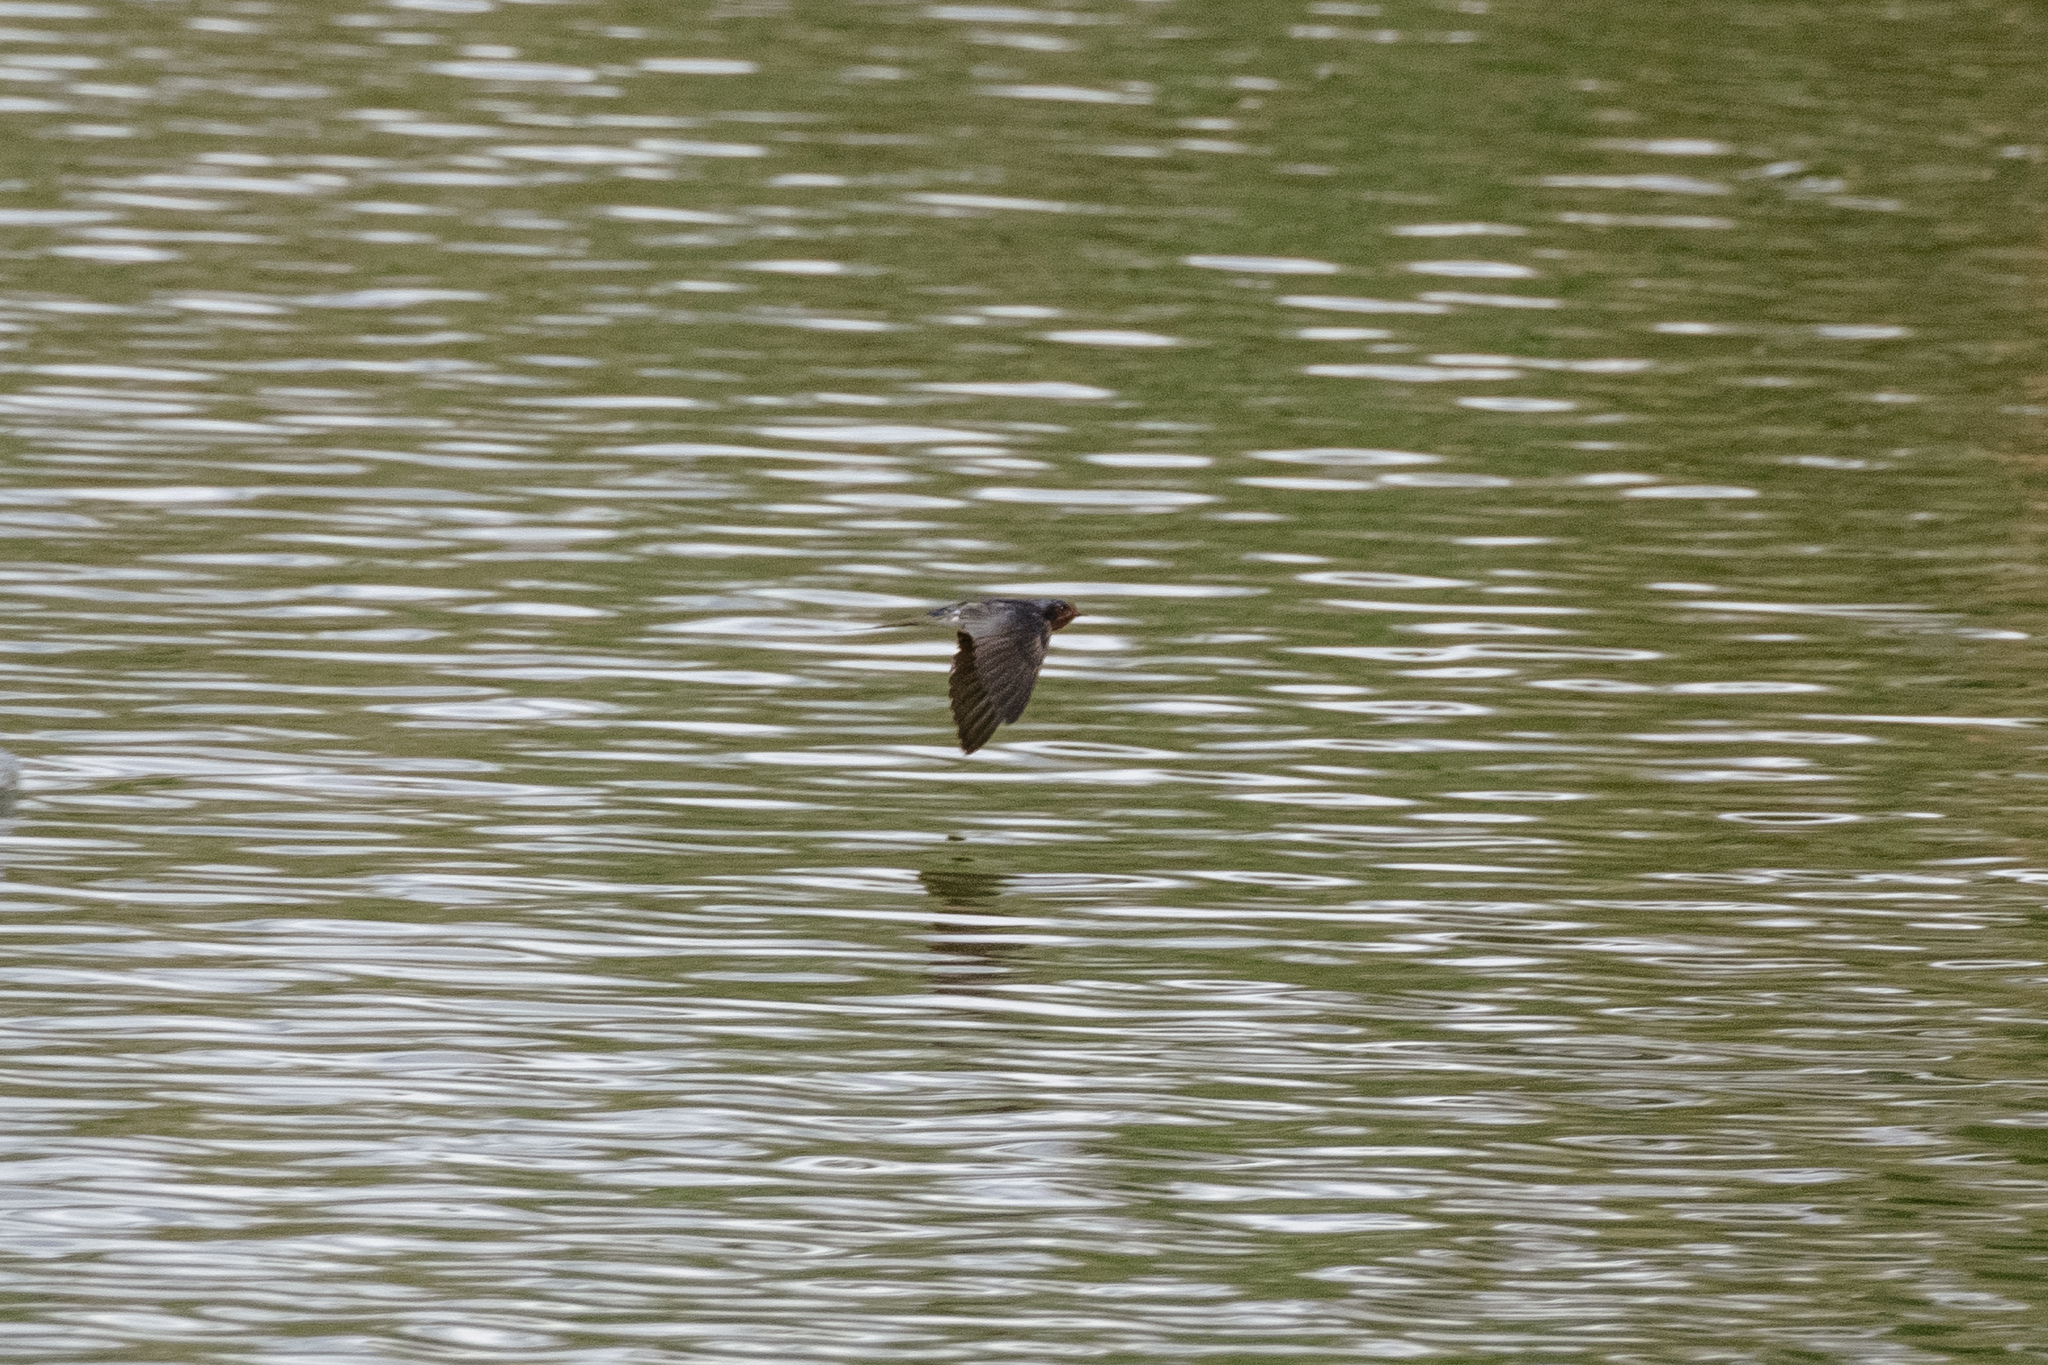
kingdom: Animalia
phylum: Chordata
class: Aves
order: Passeriformes
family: Hirundinidae
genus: Hirundo
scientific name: Hirundo rustica
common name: Barn swallow
